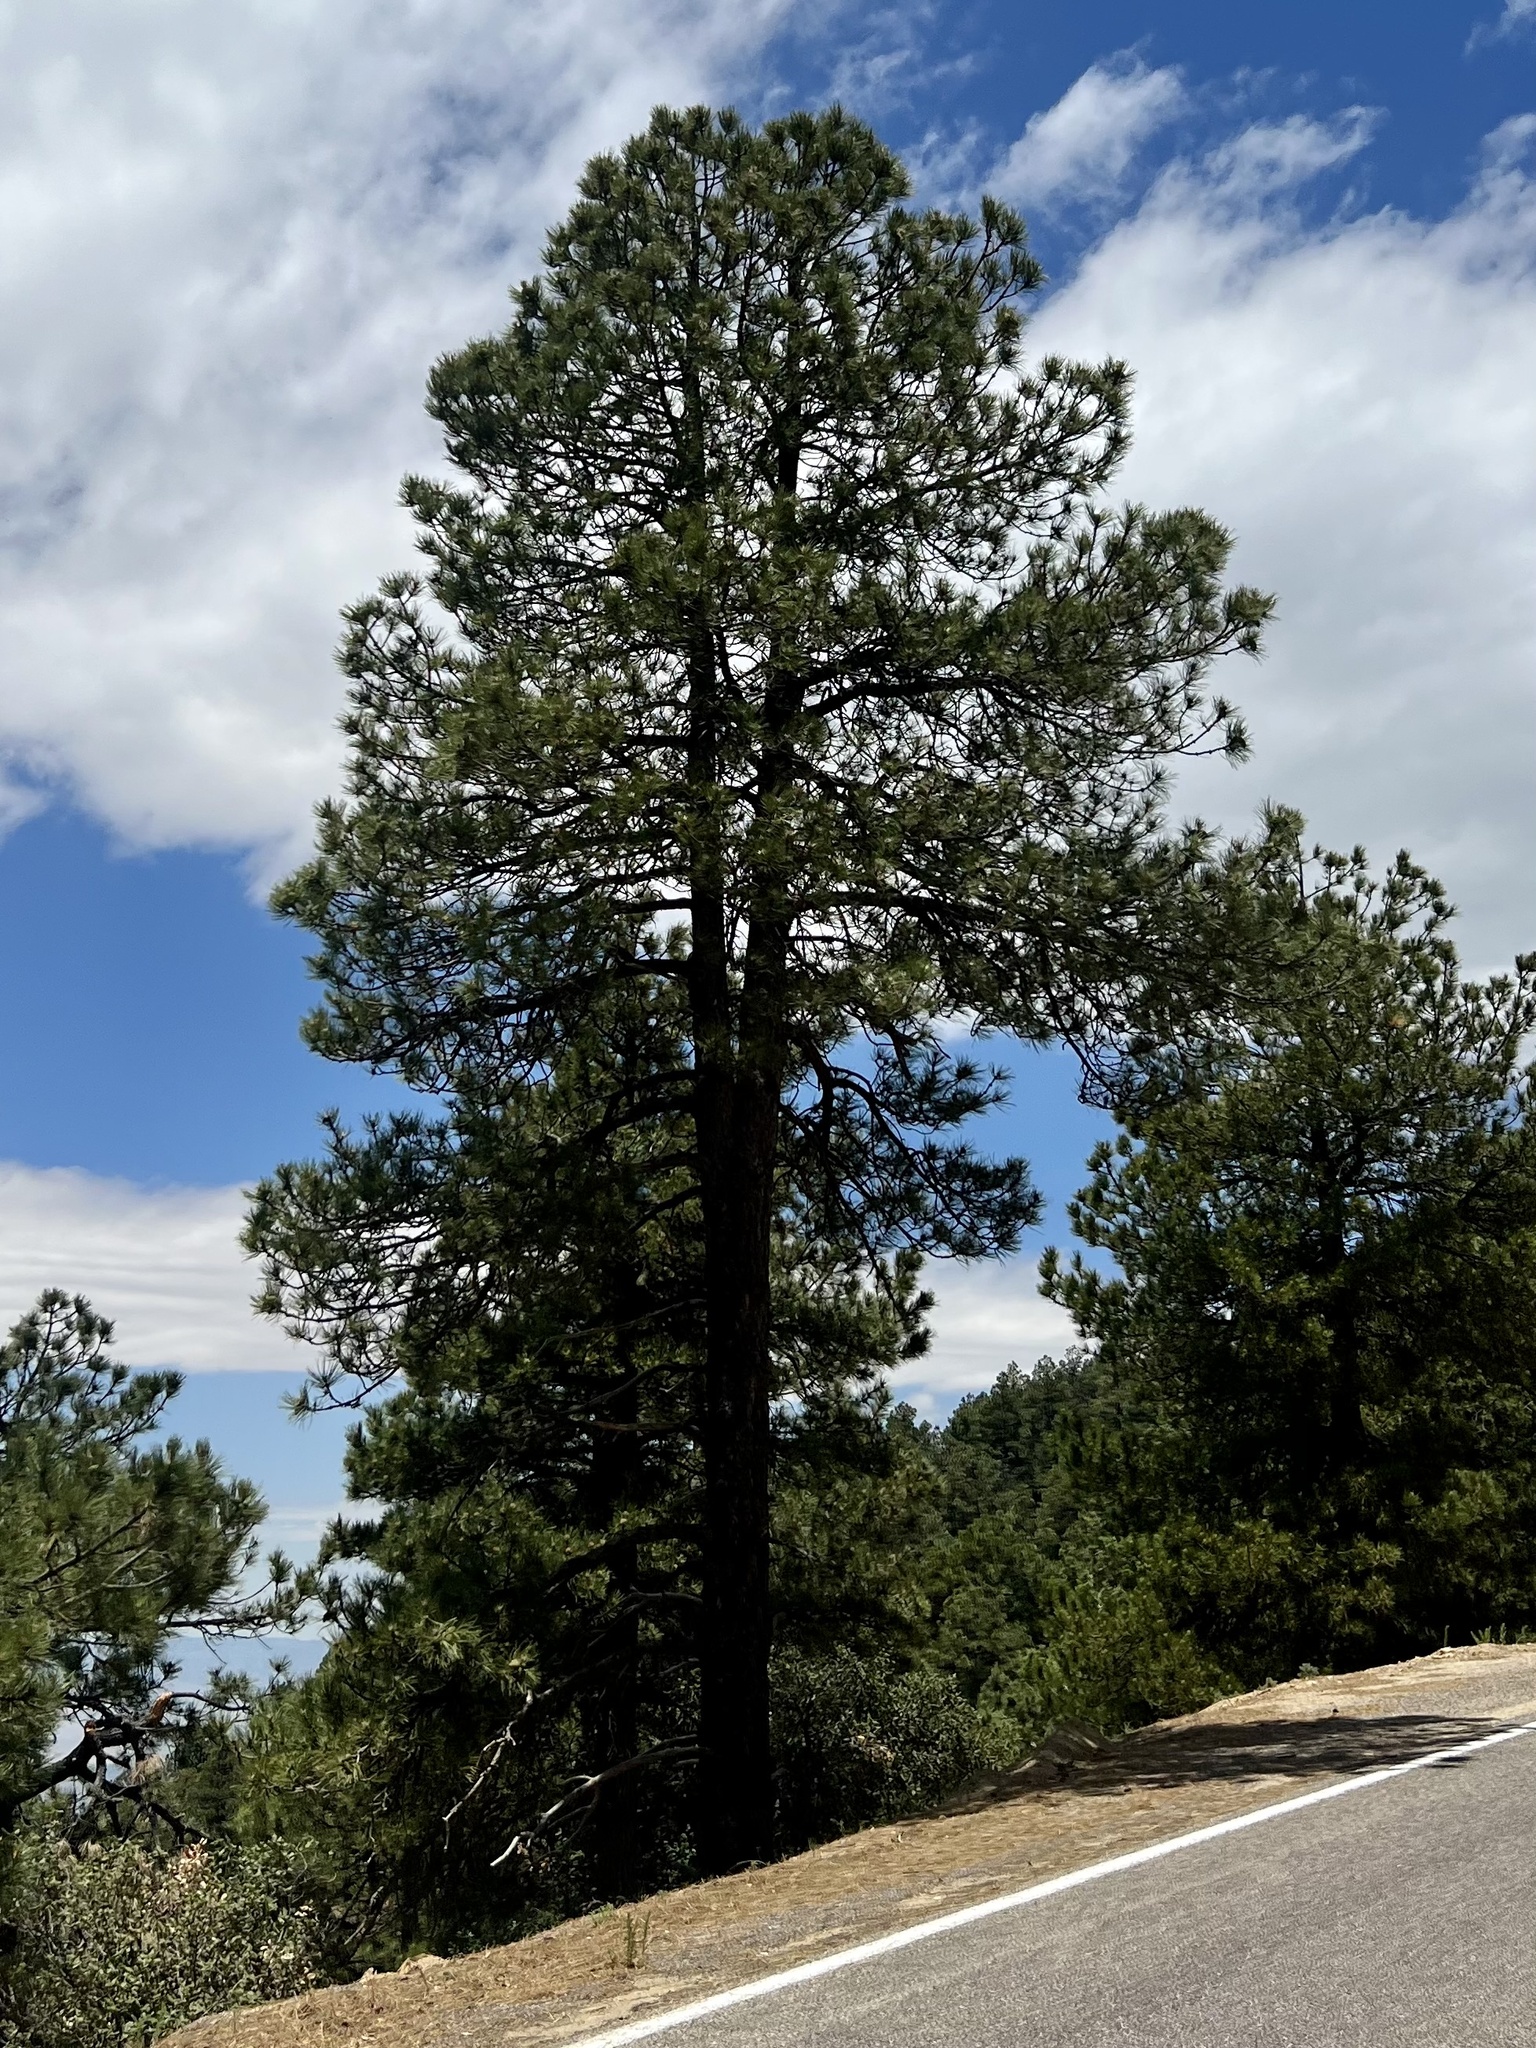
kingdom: Plantae
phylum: Tracheophyta
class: Pinopsida
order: Pinales
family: Pinaceae
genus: Pinus
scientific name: Pinus ponderosa
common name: Western yellow-pine
